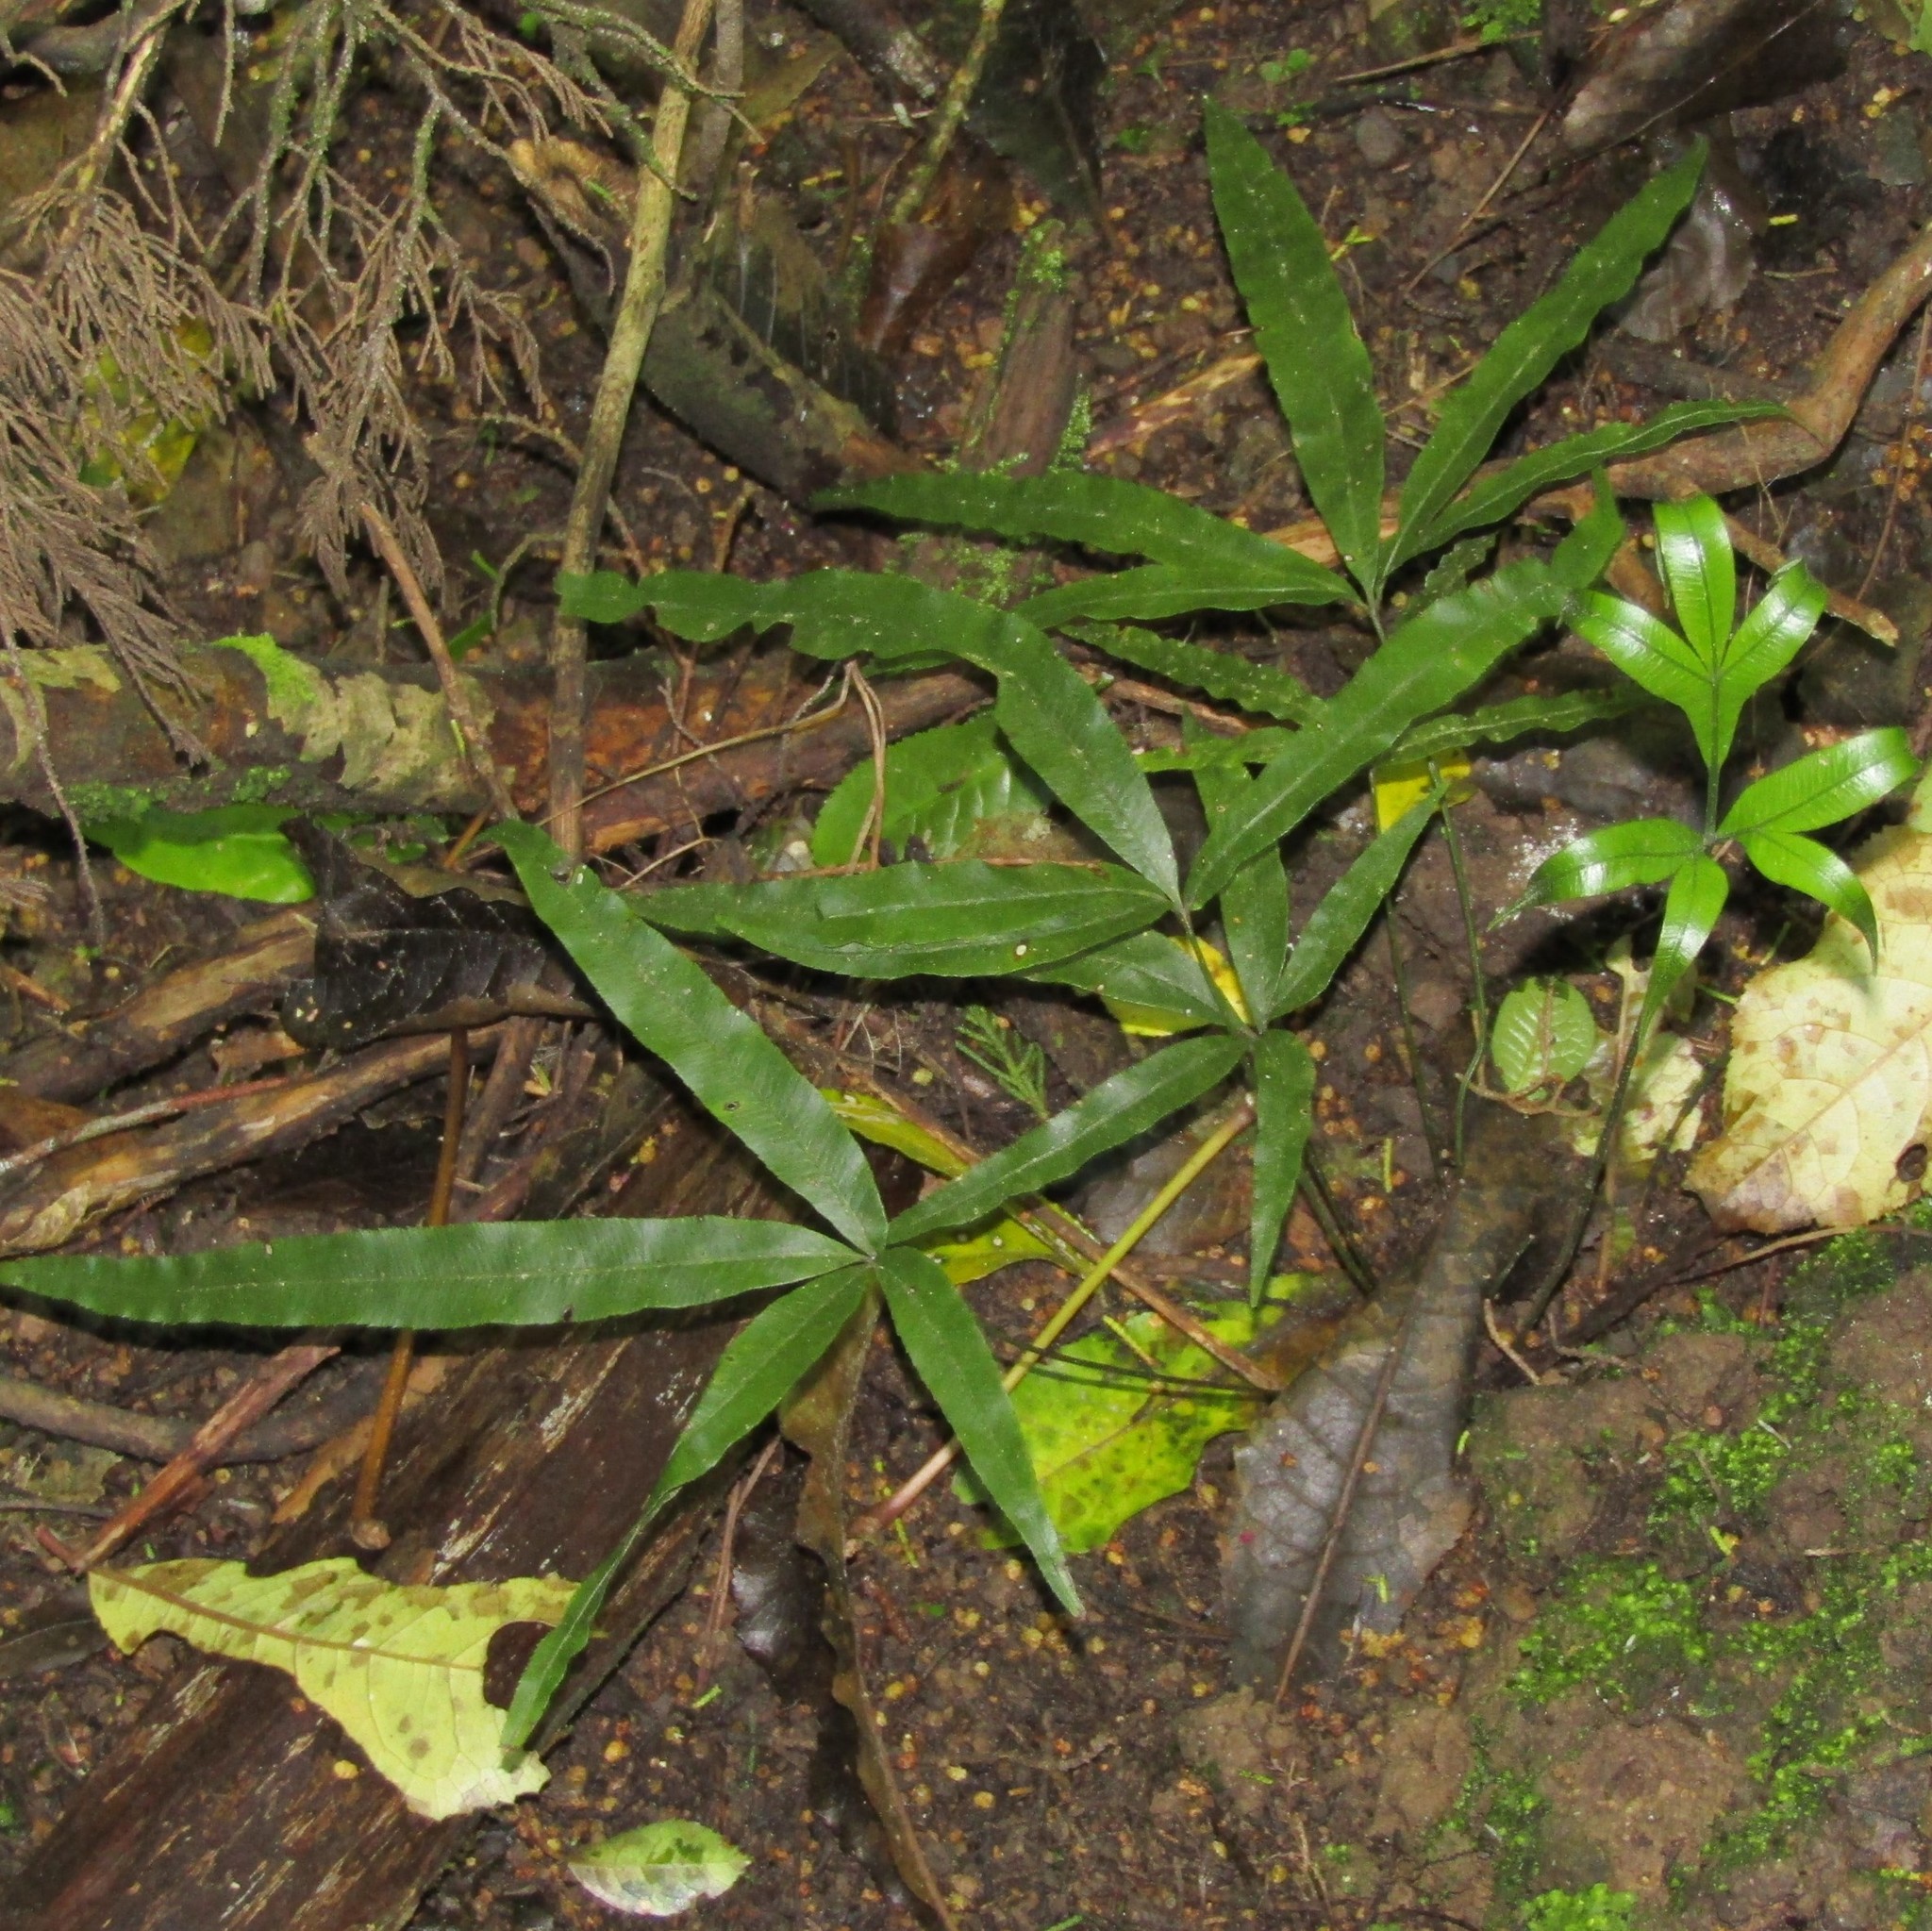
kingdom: Plantae
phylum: Tracheophyta
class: Polypodiopsida
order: Polypodiales
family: Pteridaceae
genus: Pteris
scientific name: Pteris cretica
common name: Ribbon fern
